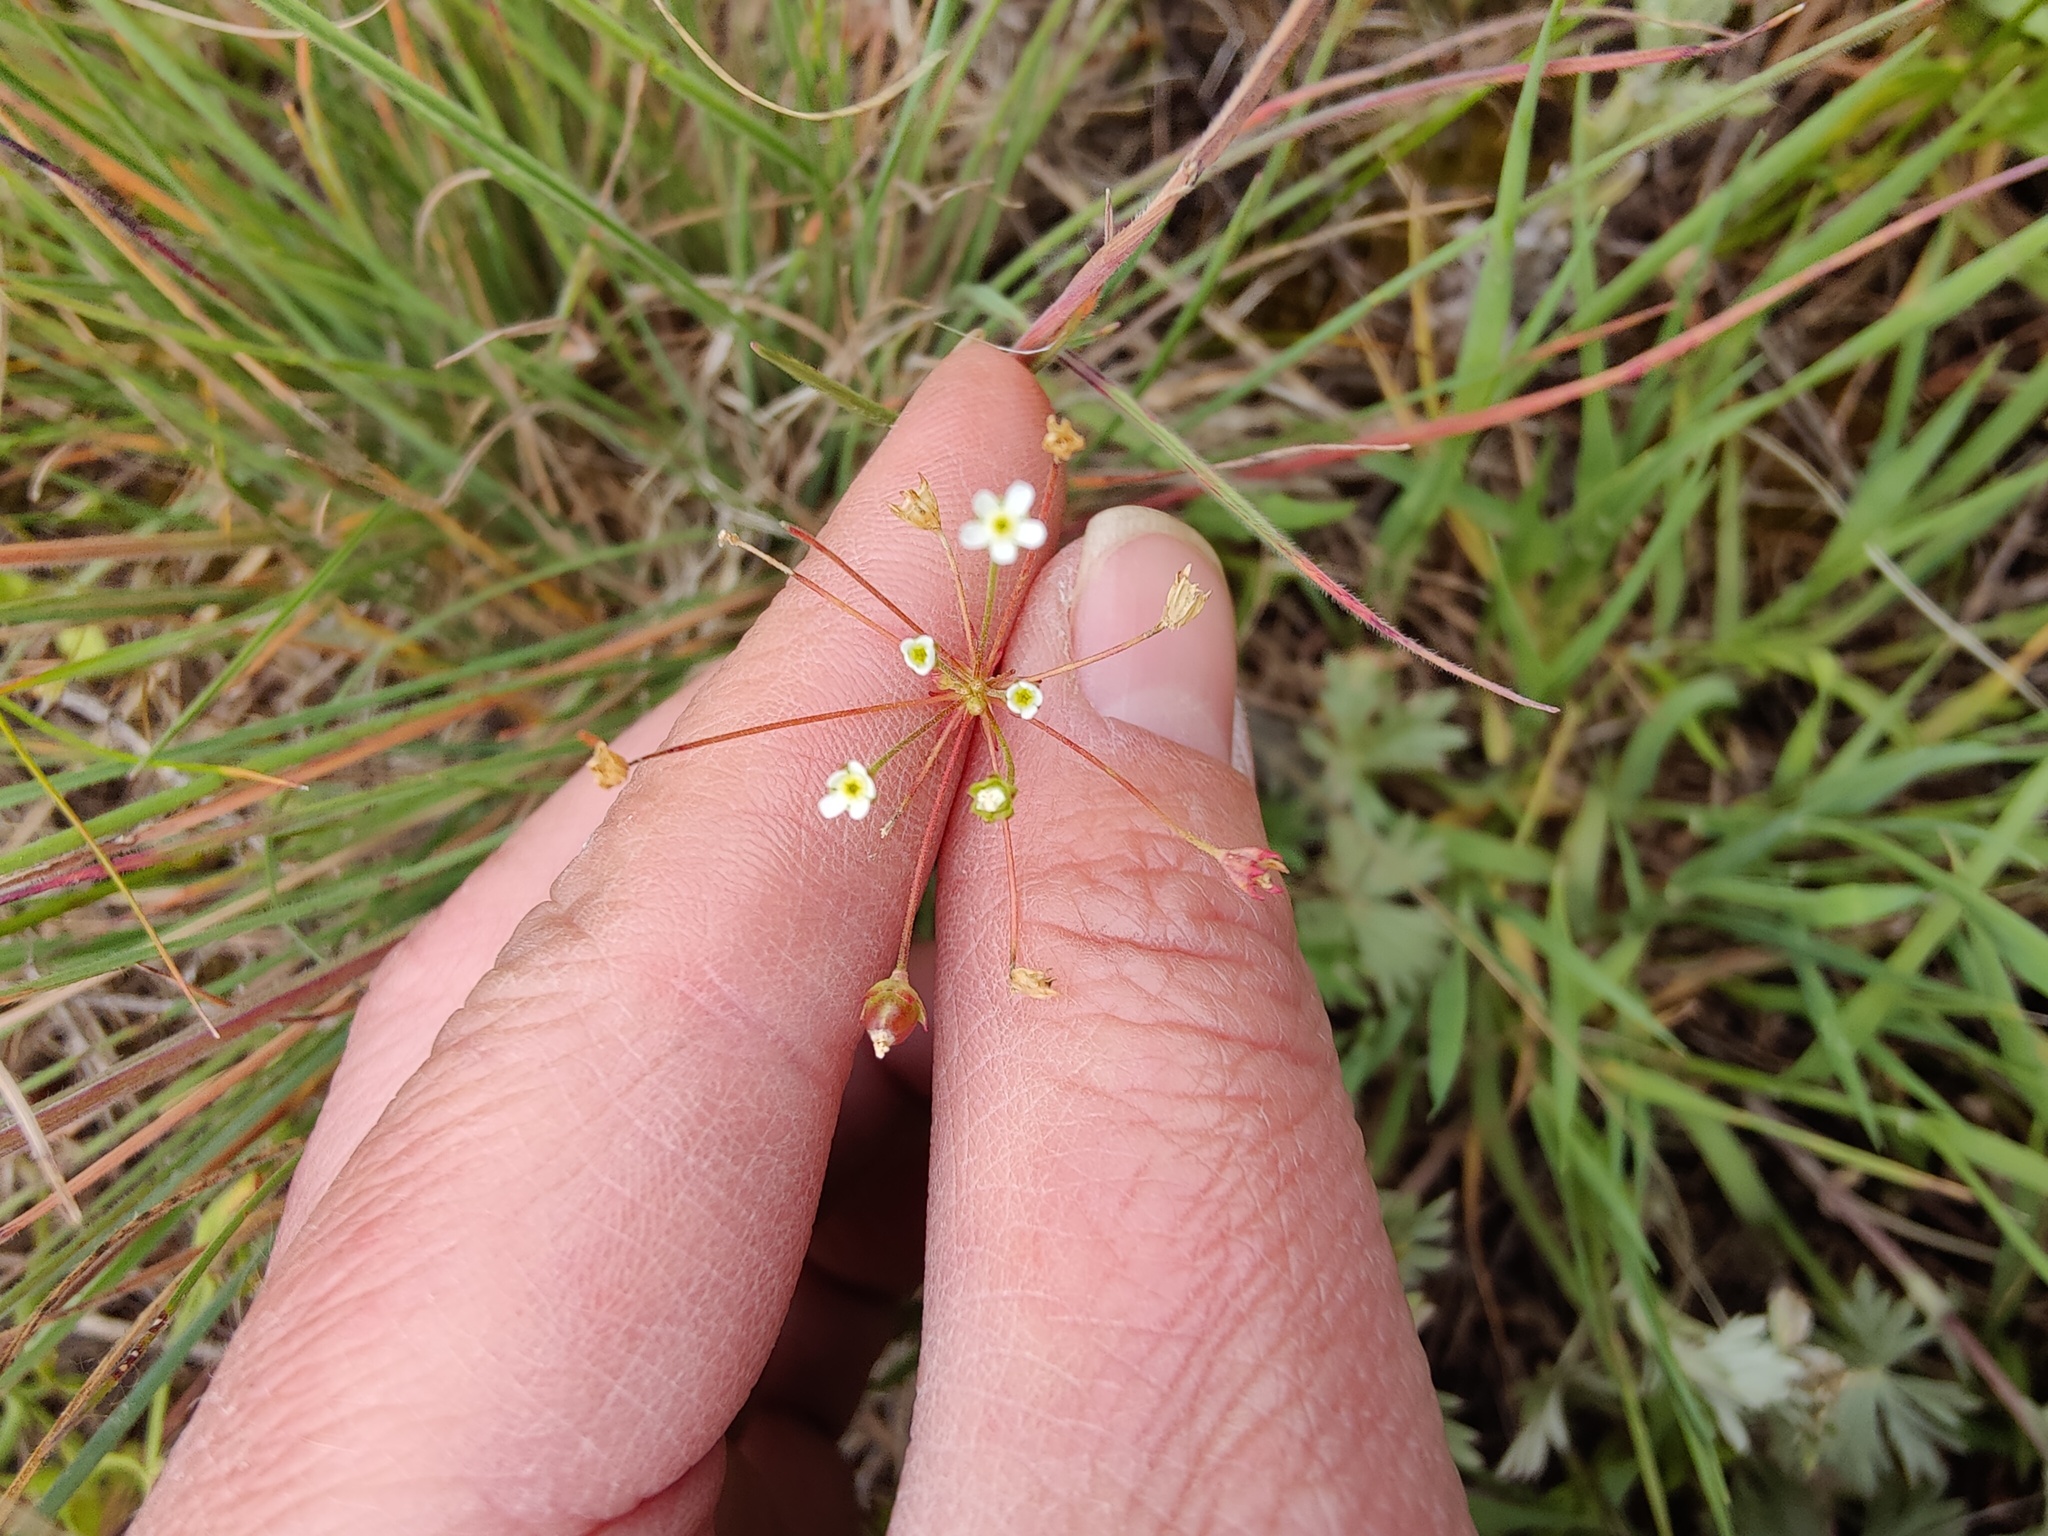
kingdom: Plantae
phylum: Tracheophyta
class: Magnoliopsida
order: Ericales
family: Primulaceae
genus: Androsace
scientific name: Androsace septentrionalis
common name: Hairy northern fairy-candelabra
